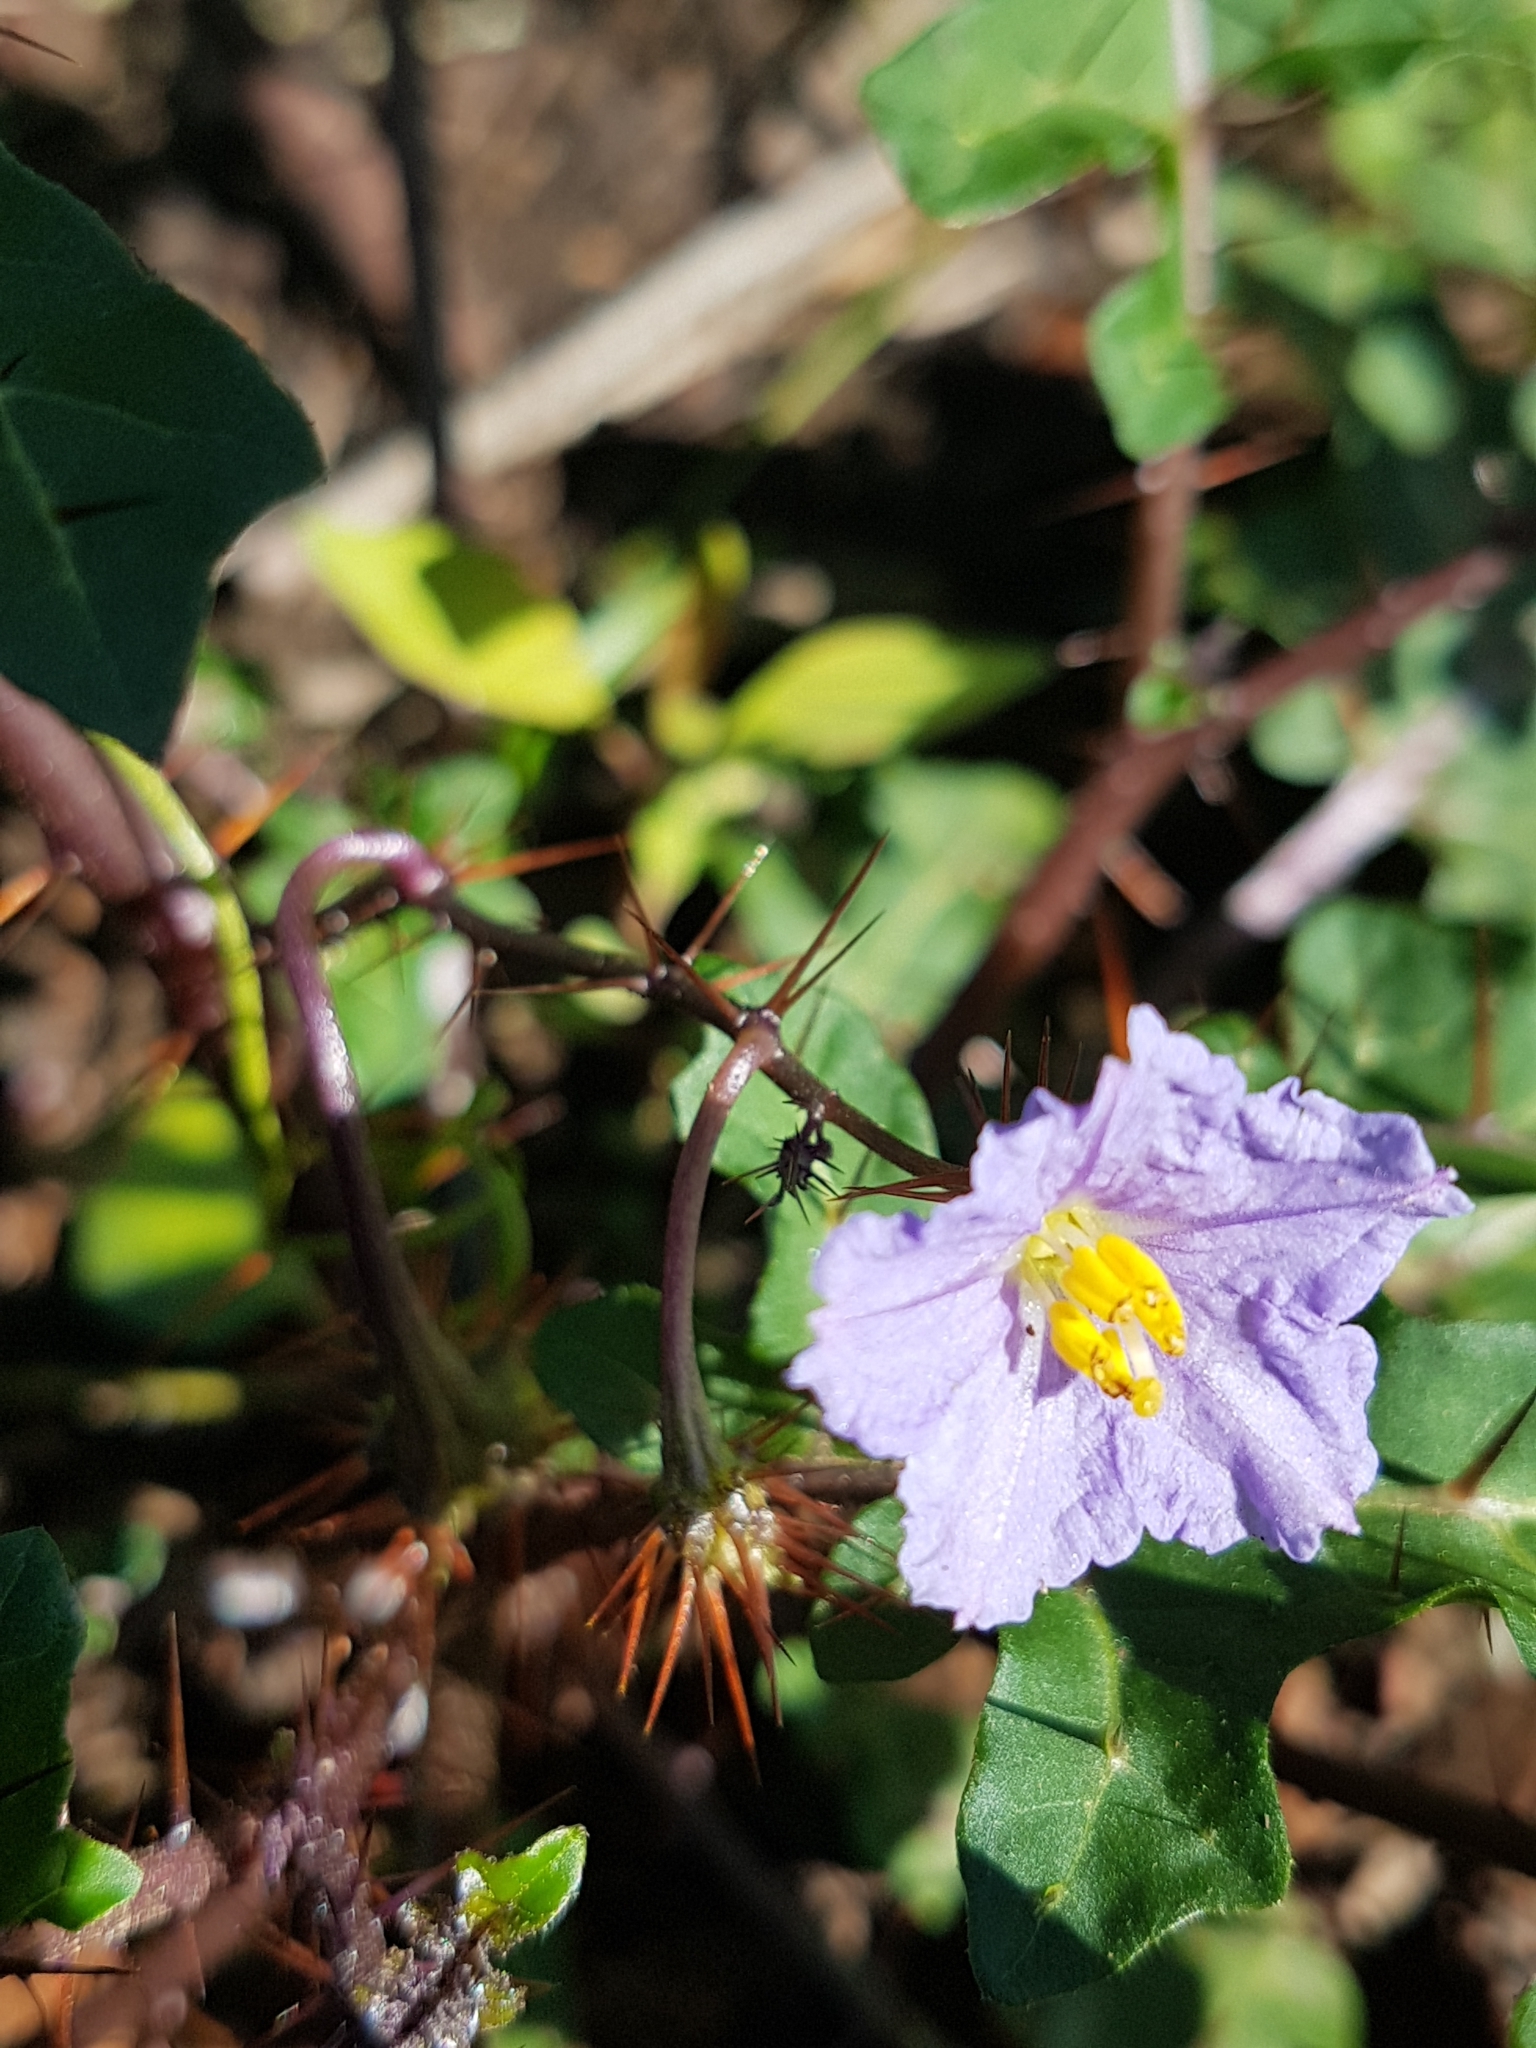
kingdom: Plantae
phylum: Tracheophyta
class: Magnoliopsida
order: Solanales
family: Solanaceae
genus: Solanum
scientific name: Solanum prinophyllum
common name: Forest nightshade
